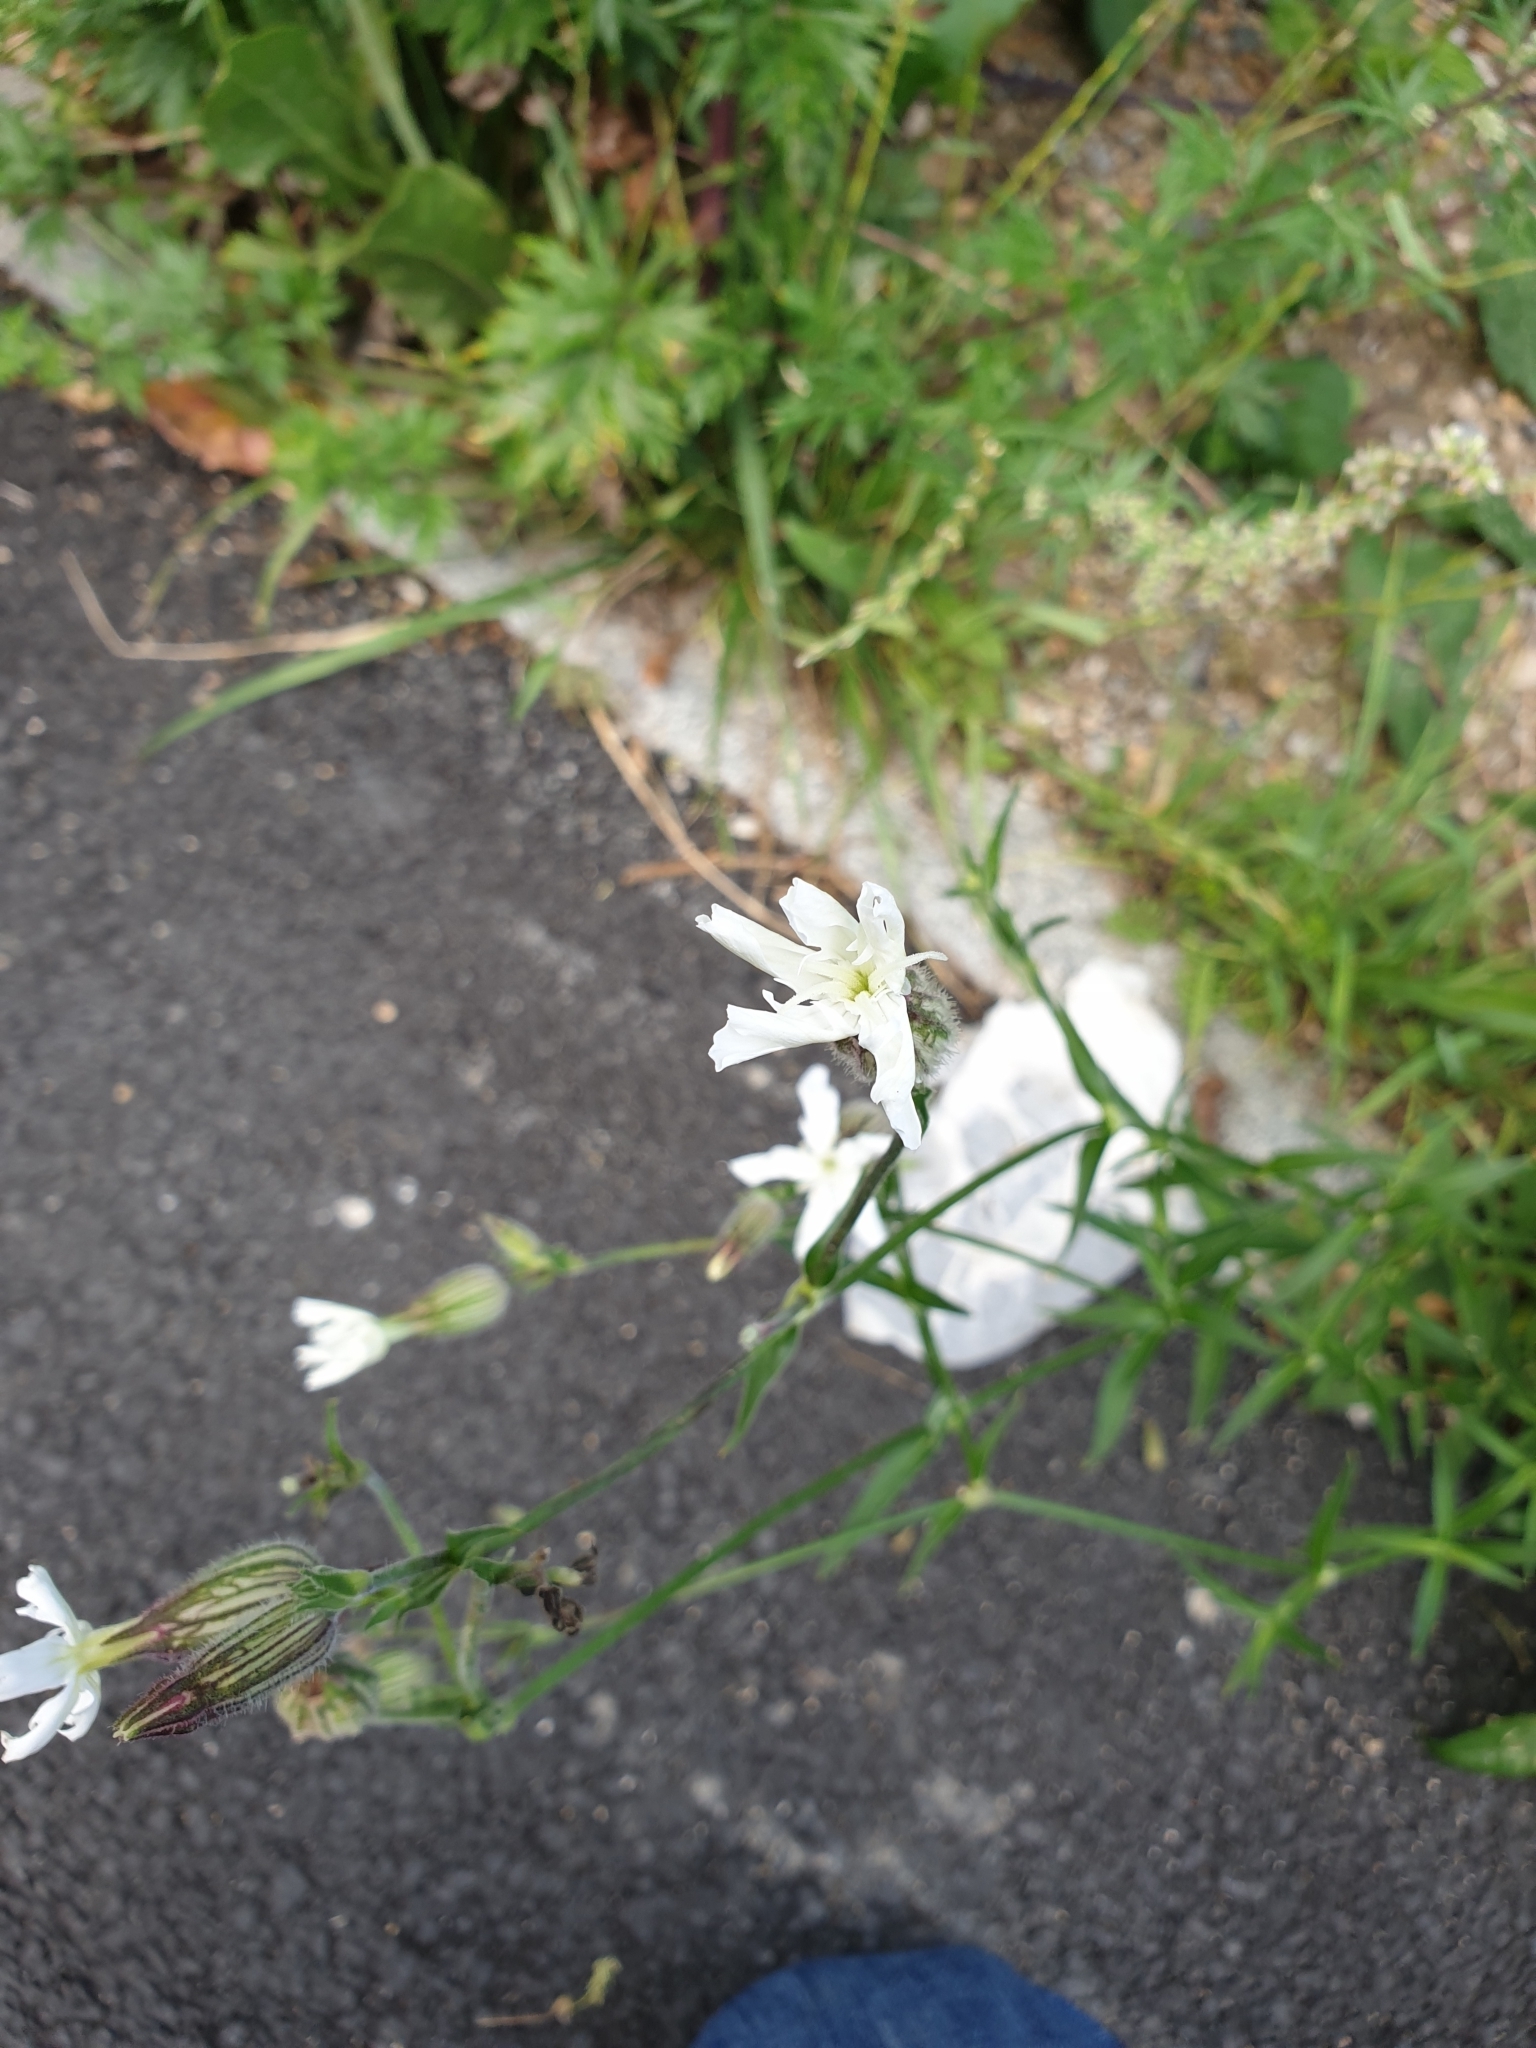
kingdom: Plantae
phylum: Tracheophyta
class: Magnoliopsida
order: Caryophyllales
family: Caryophyllaceae
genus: Silene
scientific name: Silene latifolia
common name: White campion
